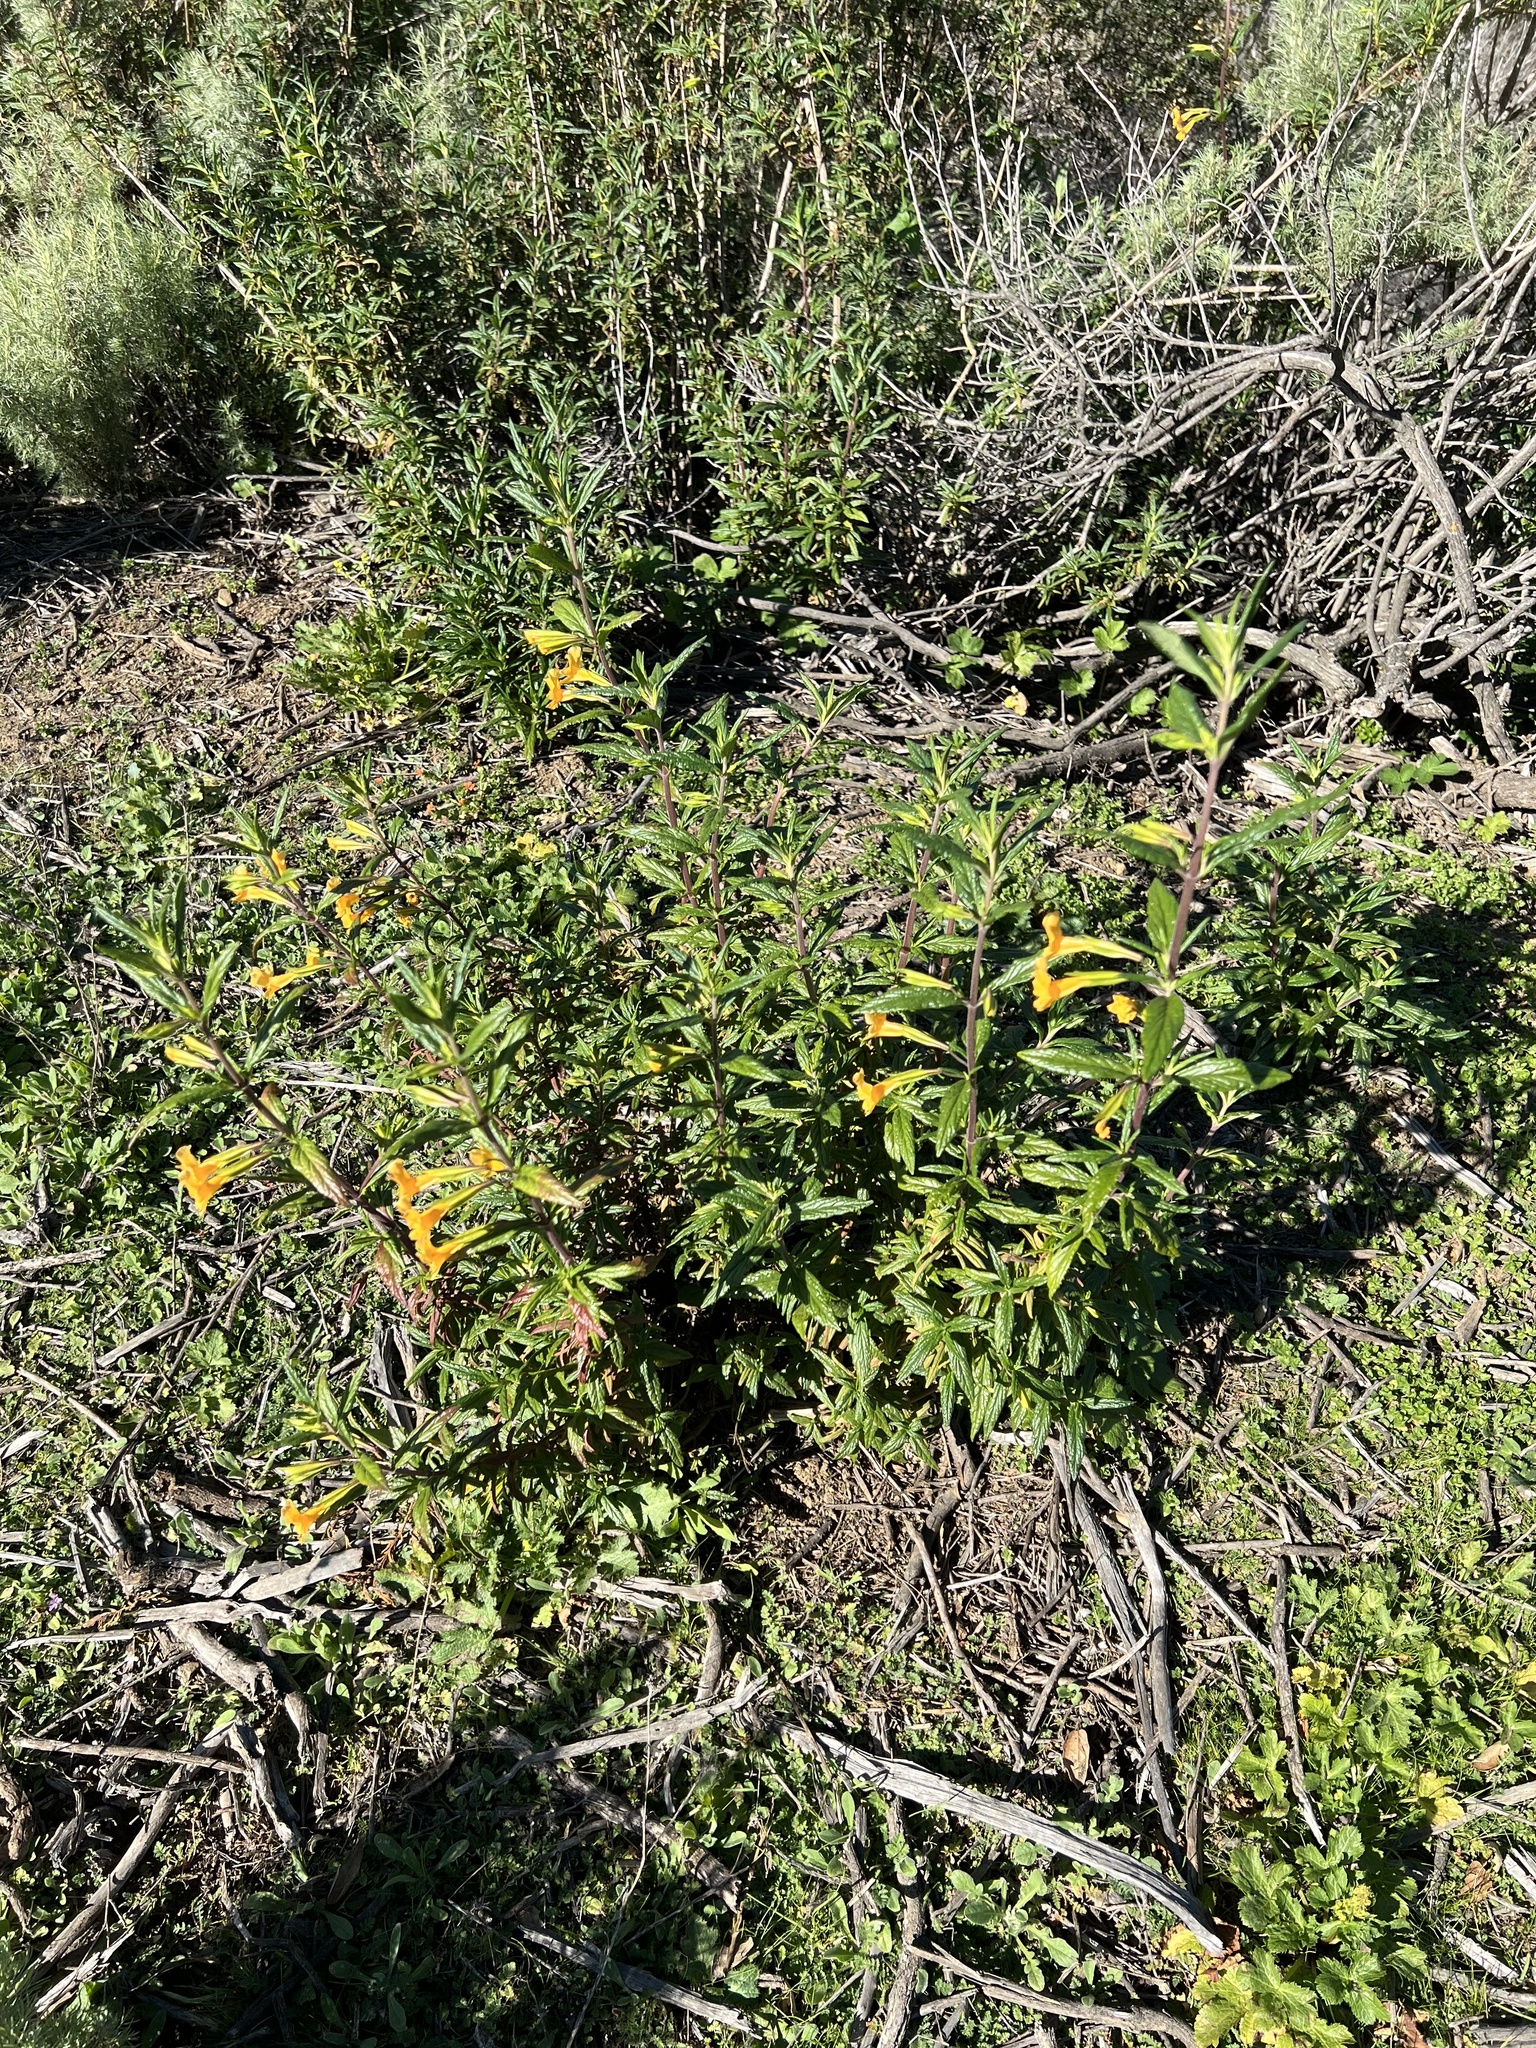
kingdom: Plantae
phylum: Tracheophyta
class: Magnoliopsida
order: Lamiales
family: Phrymaceae
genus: Diplacus
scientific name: Diplacus aurantiacus
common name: Bush monkey-flower
